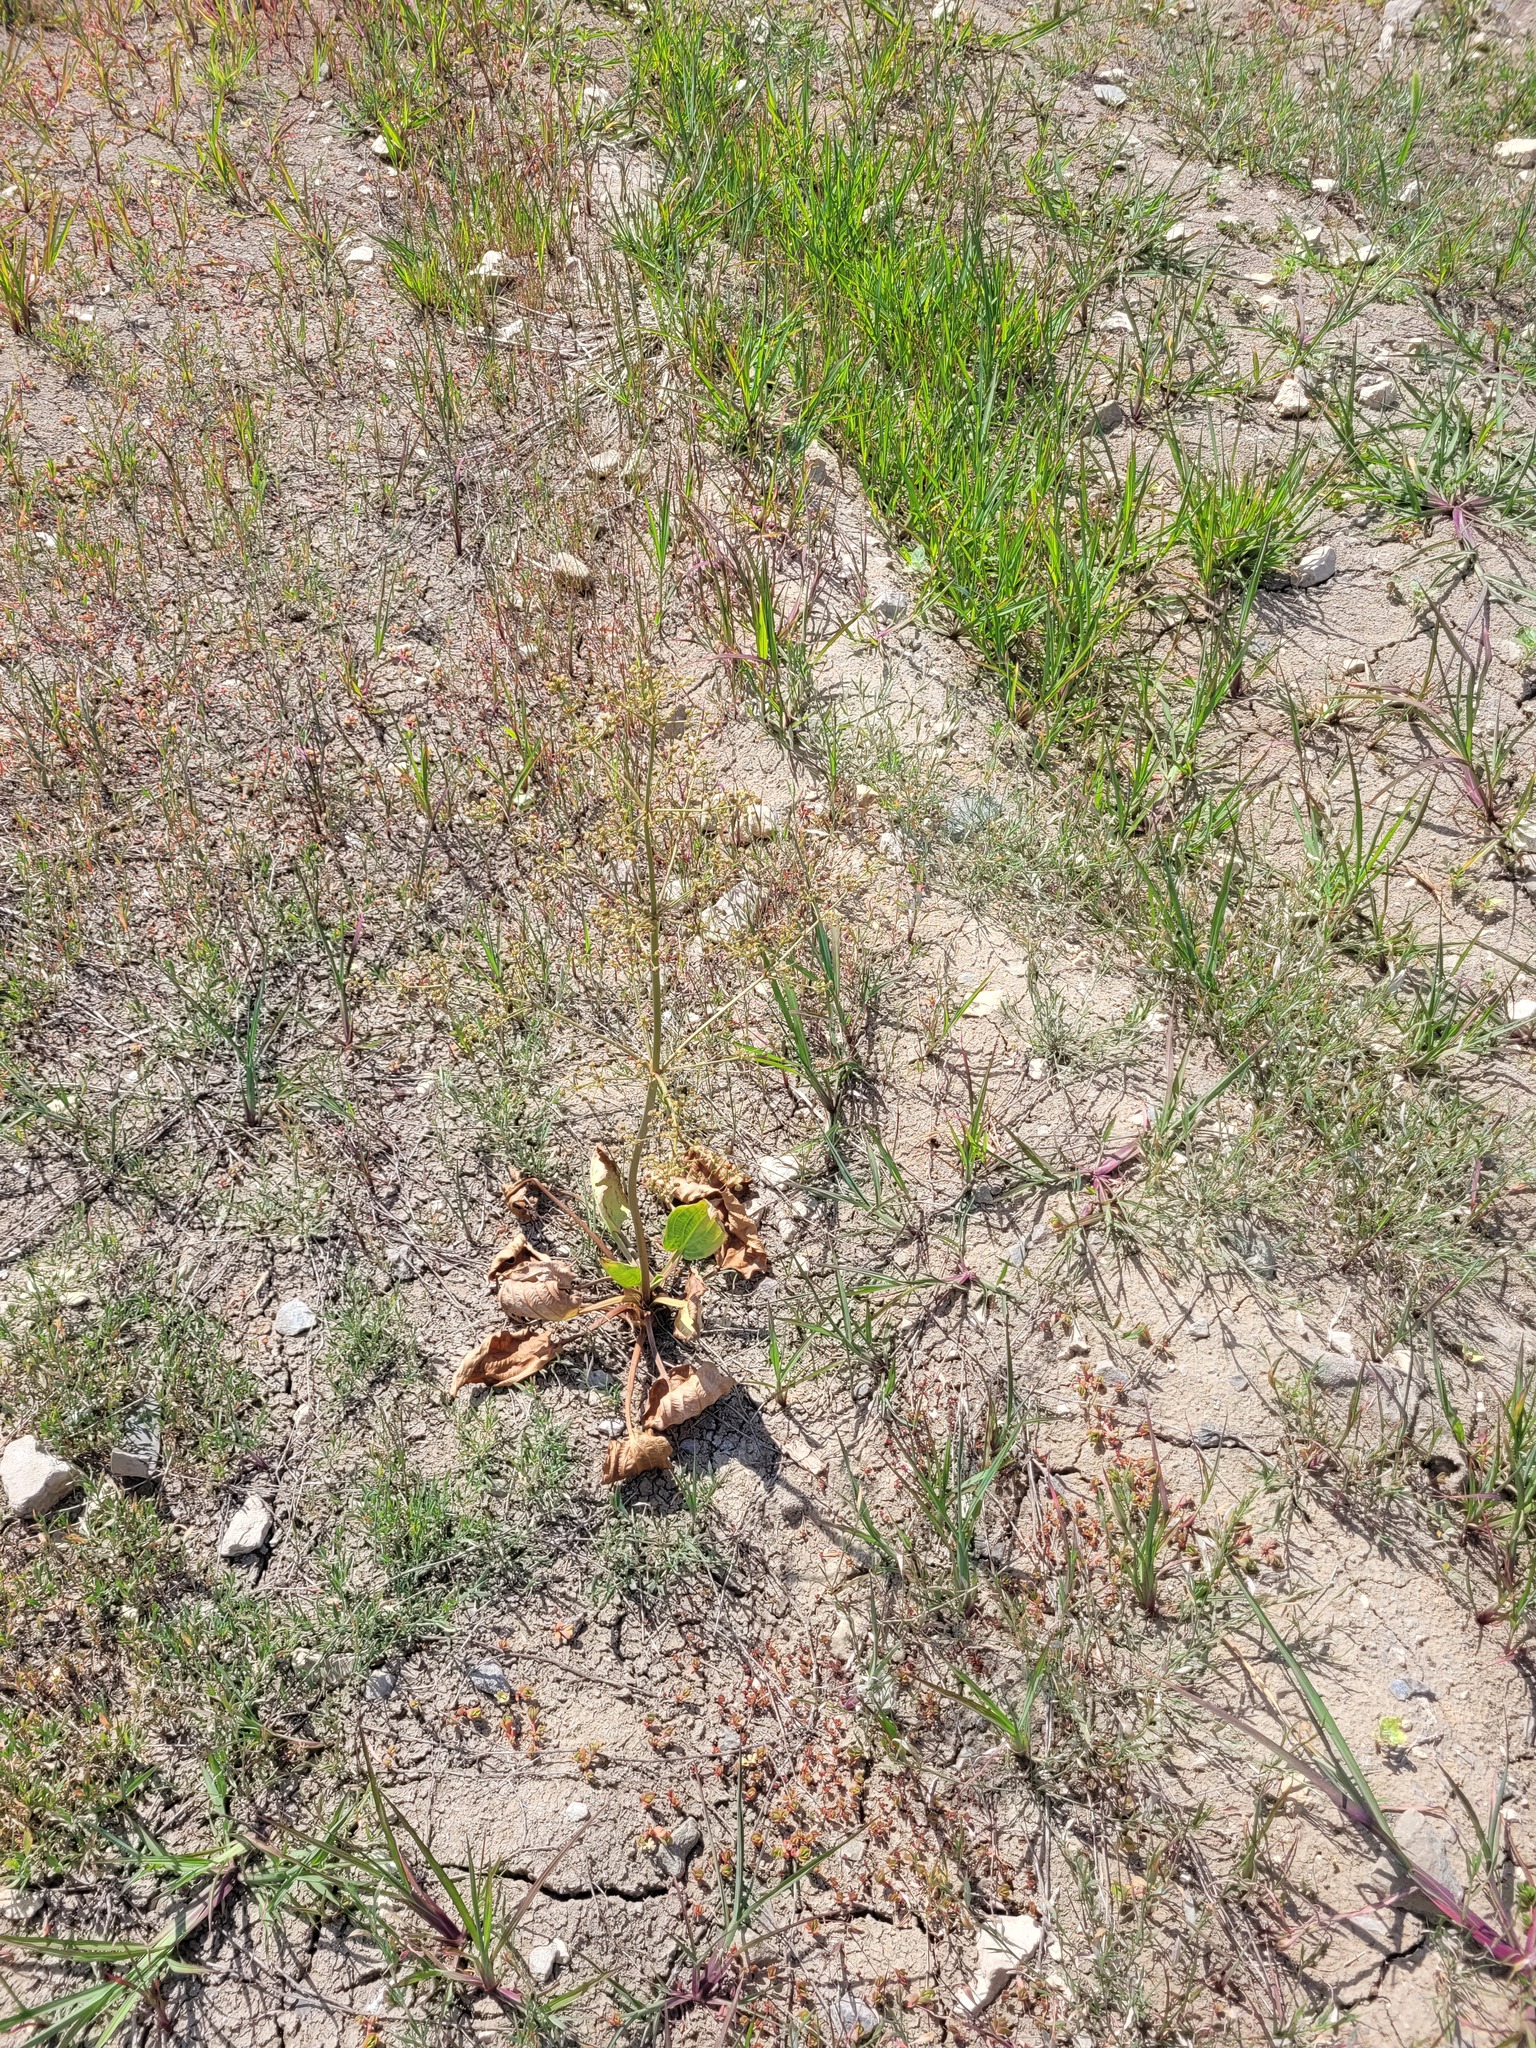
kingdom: Plantae
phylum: Tracheophyta
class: Liliopsida
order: Alismatales
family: Alismataceae
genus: Alisma
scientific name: Alisma plantago-aquatica
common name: Water-plantain
